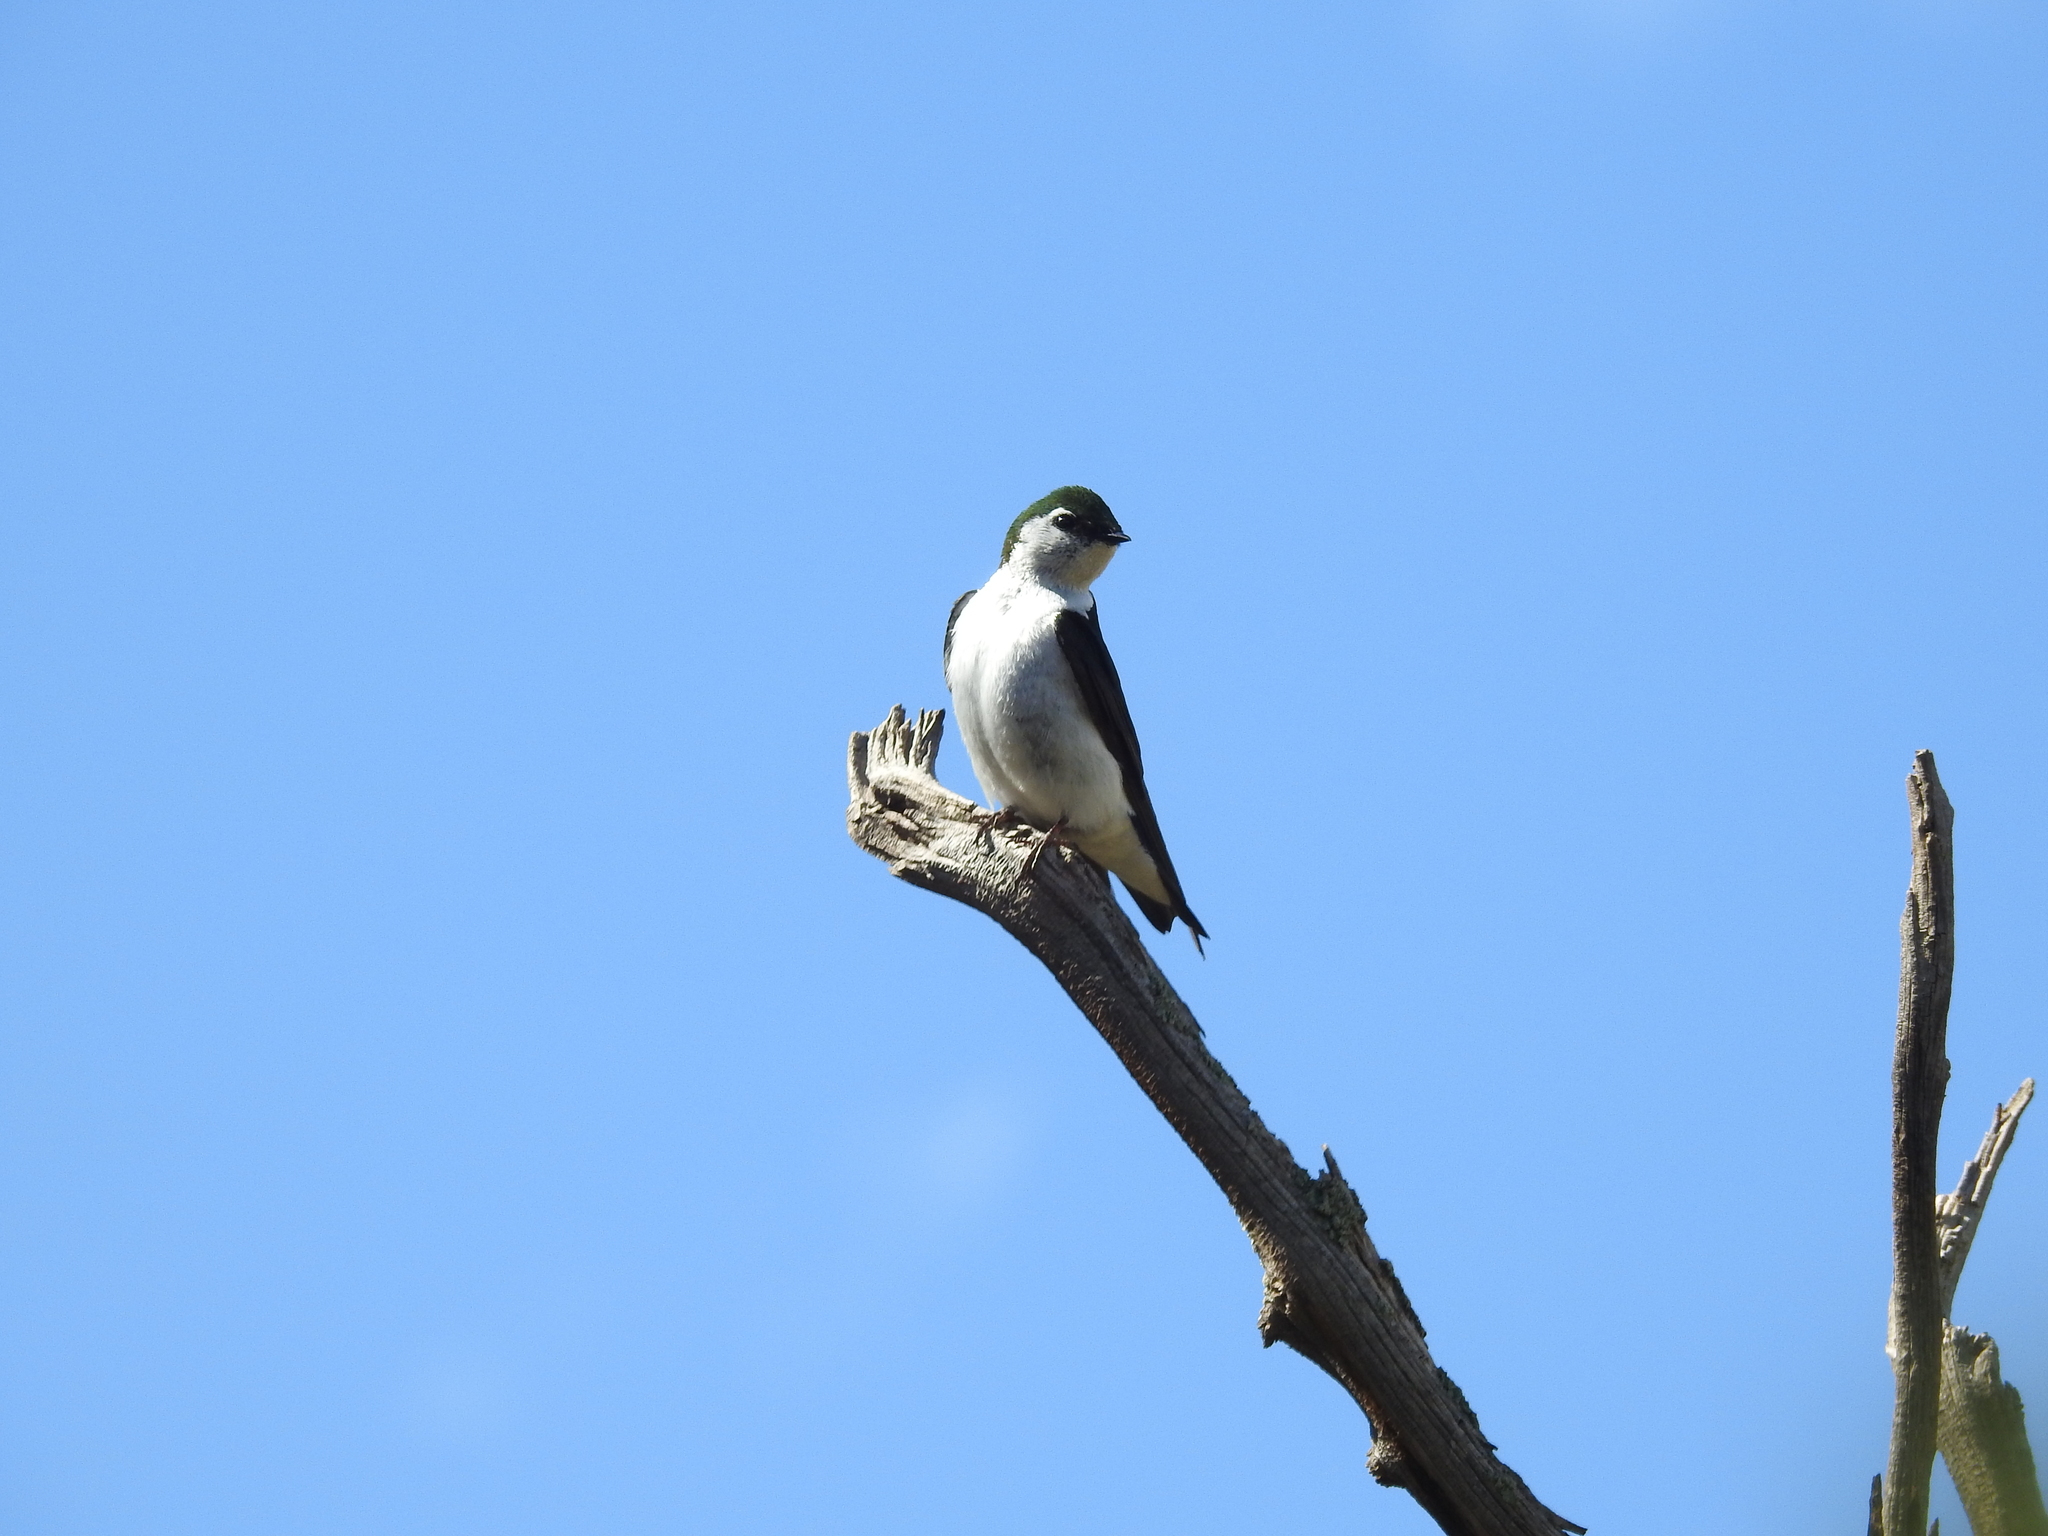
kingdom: Animalia
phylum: Chordata
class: Aves
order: Passeriformes
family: Hirundinidae
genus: Tachycineta
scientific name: Tachycineta thalassina
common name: Violet-green swallow
